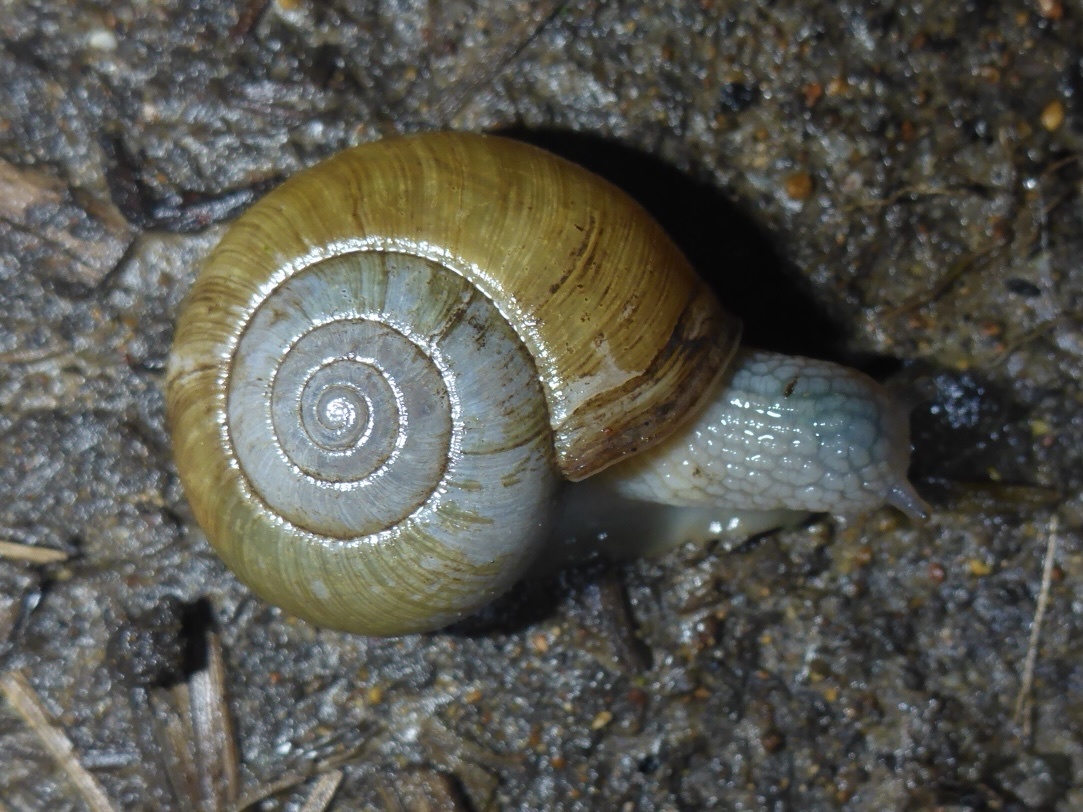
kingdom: Animalia
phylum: Mollusca
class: Gastropoda
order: Stylommatophora
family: Haplotrematidae
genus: Haplotrema
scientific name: Haplotrema minimum
